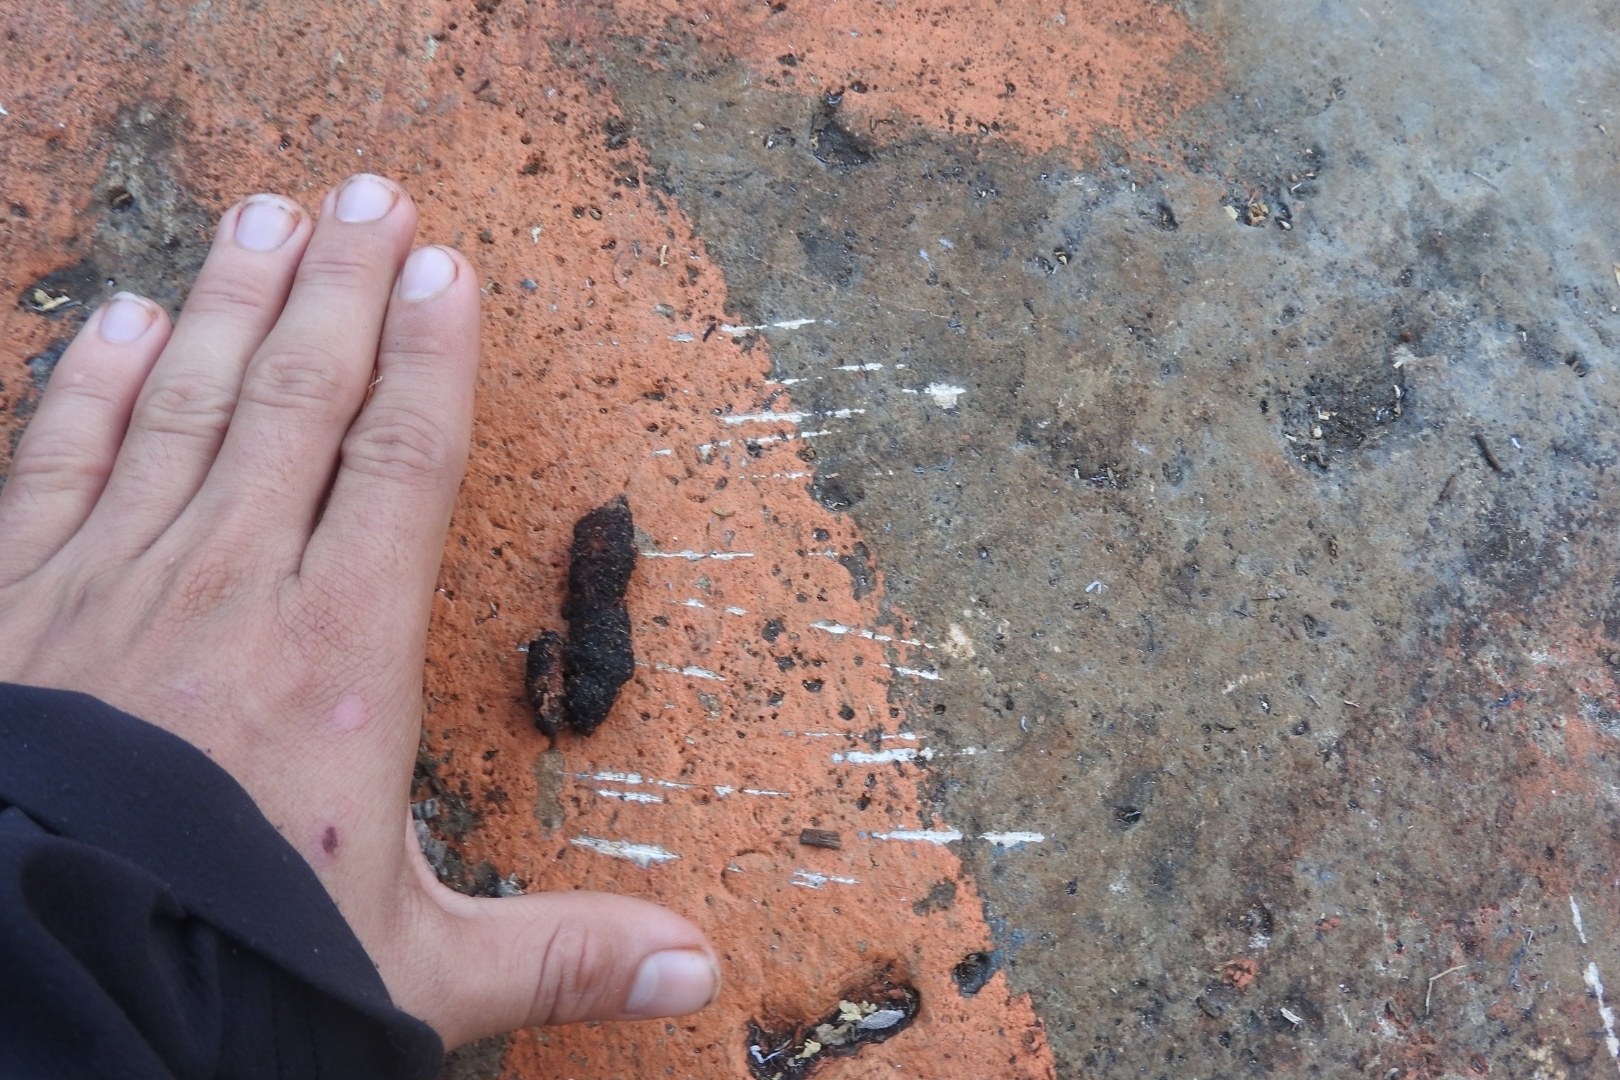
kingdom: Animalia
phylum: Chordata
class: Mammalia
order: Carnivora
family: Canidae
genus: Urocyon
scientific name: Urocyon cinereoargenteus
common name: Gray fox
